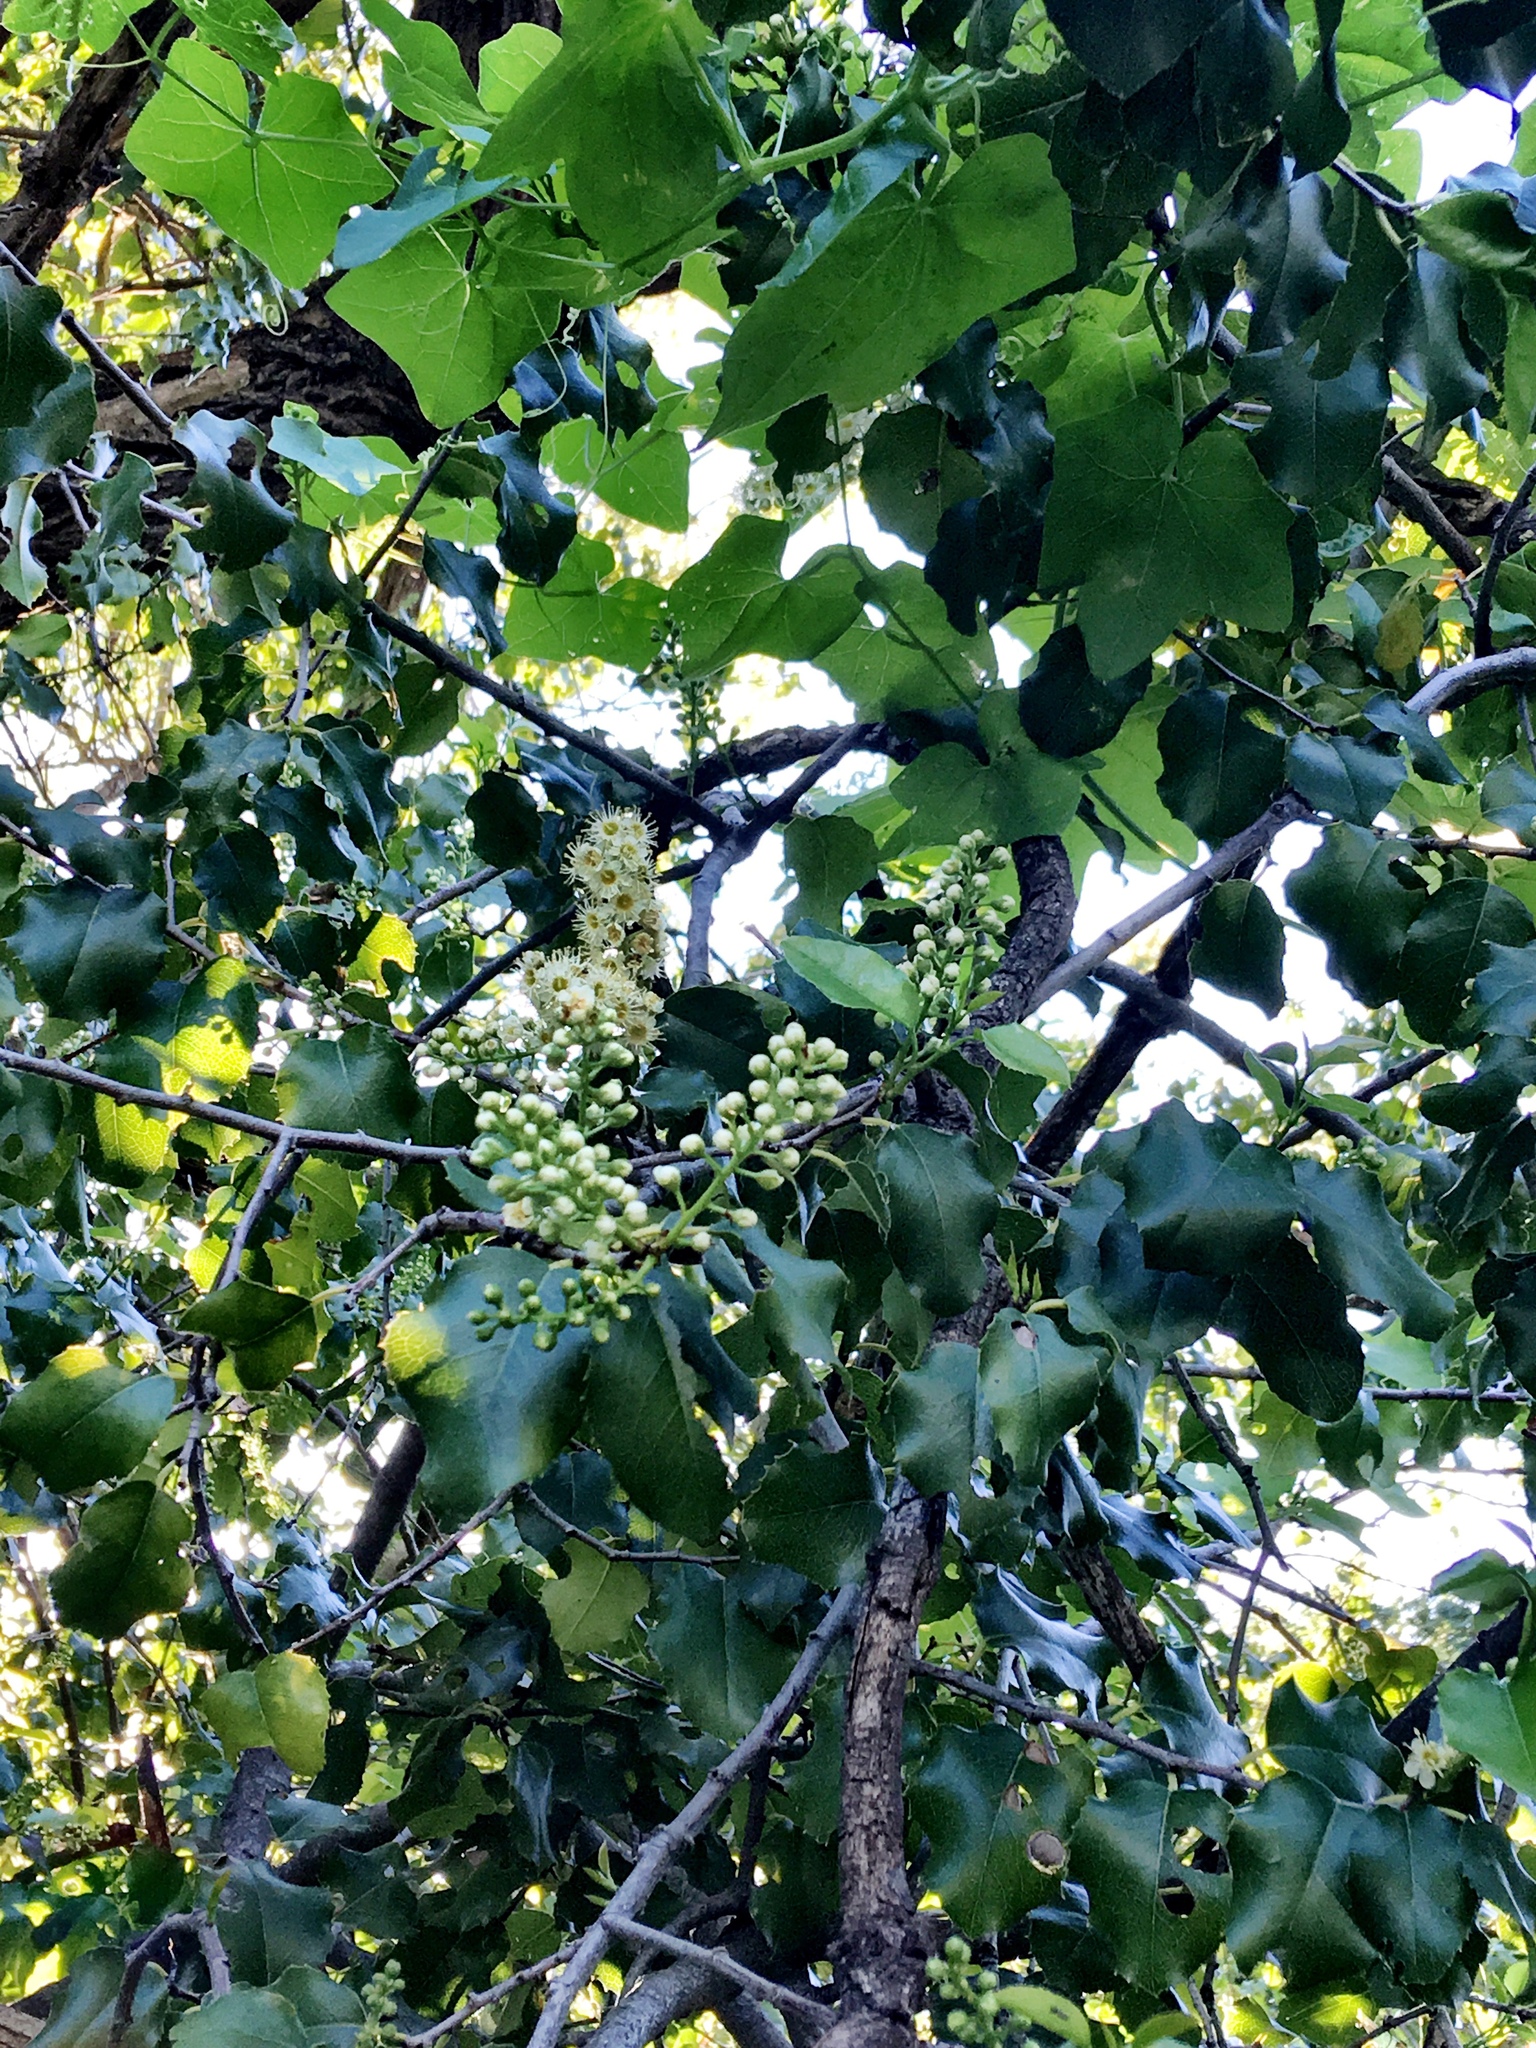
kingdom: Plantae
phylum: Tracheophyta
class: Magnoliopsida
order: Rosales
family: Rosaceae
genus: Prunus
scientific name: Prunus ilicifolia
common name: Hollyleaf cherry
